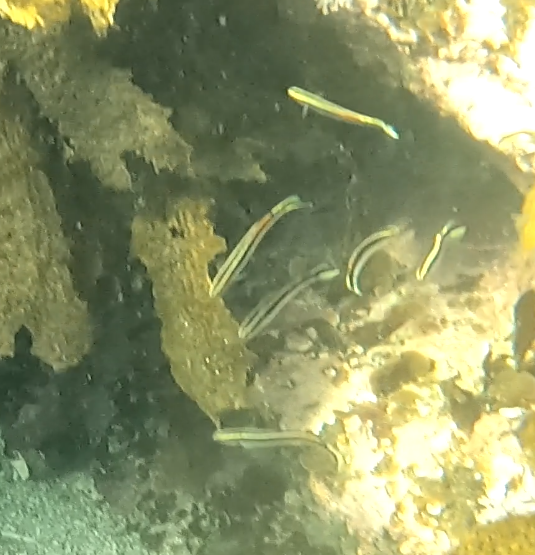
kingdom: Animalia
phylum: Chordata
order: Perciformes
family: Plesiopidae
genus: Trachinops
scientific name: Trachinops taeniatus
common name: Eastern hulafish
